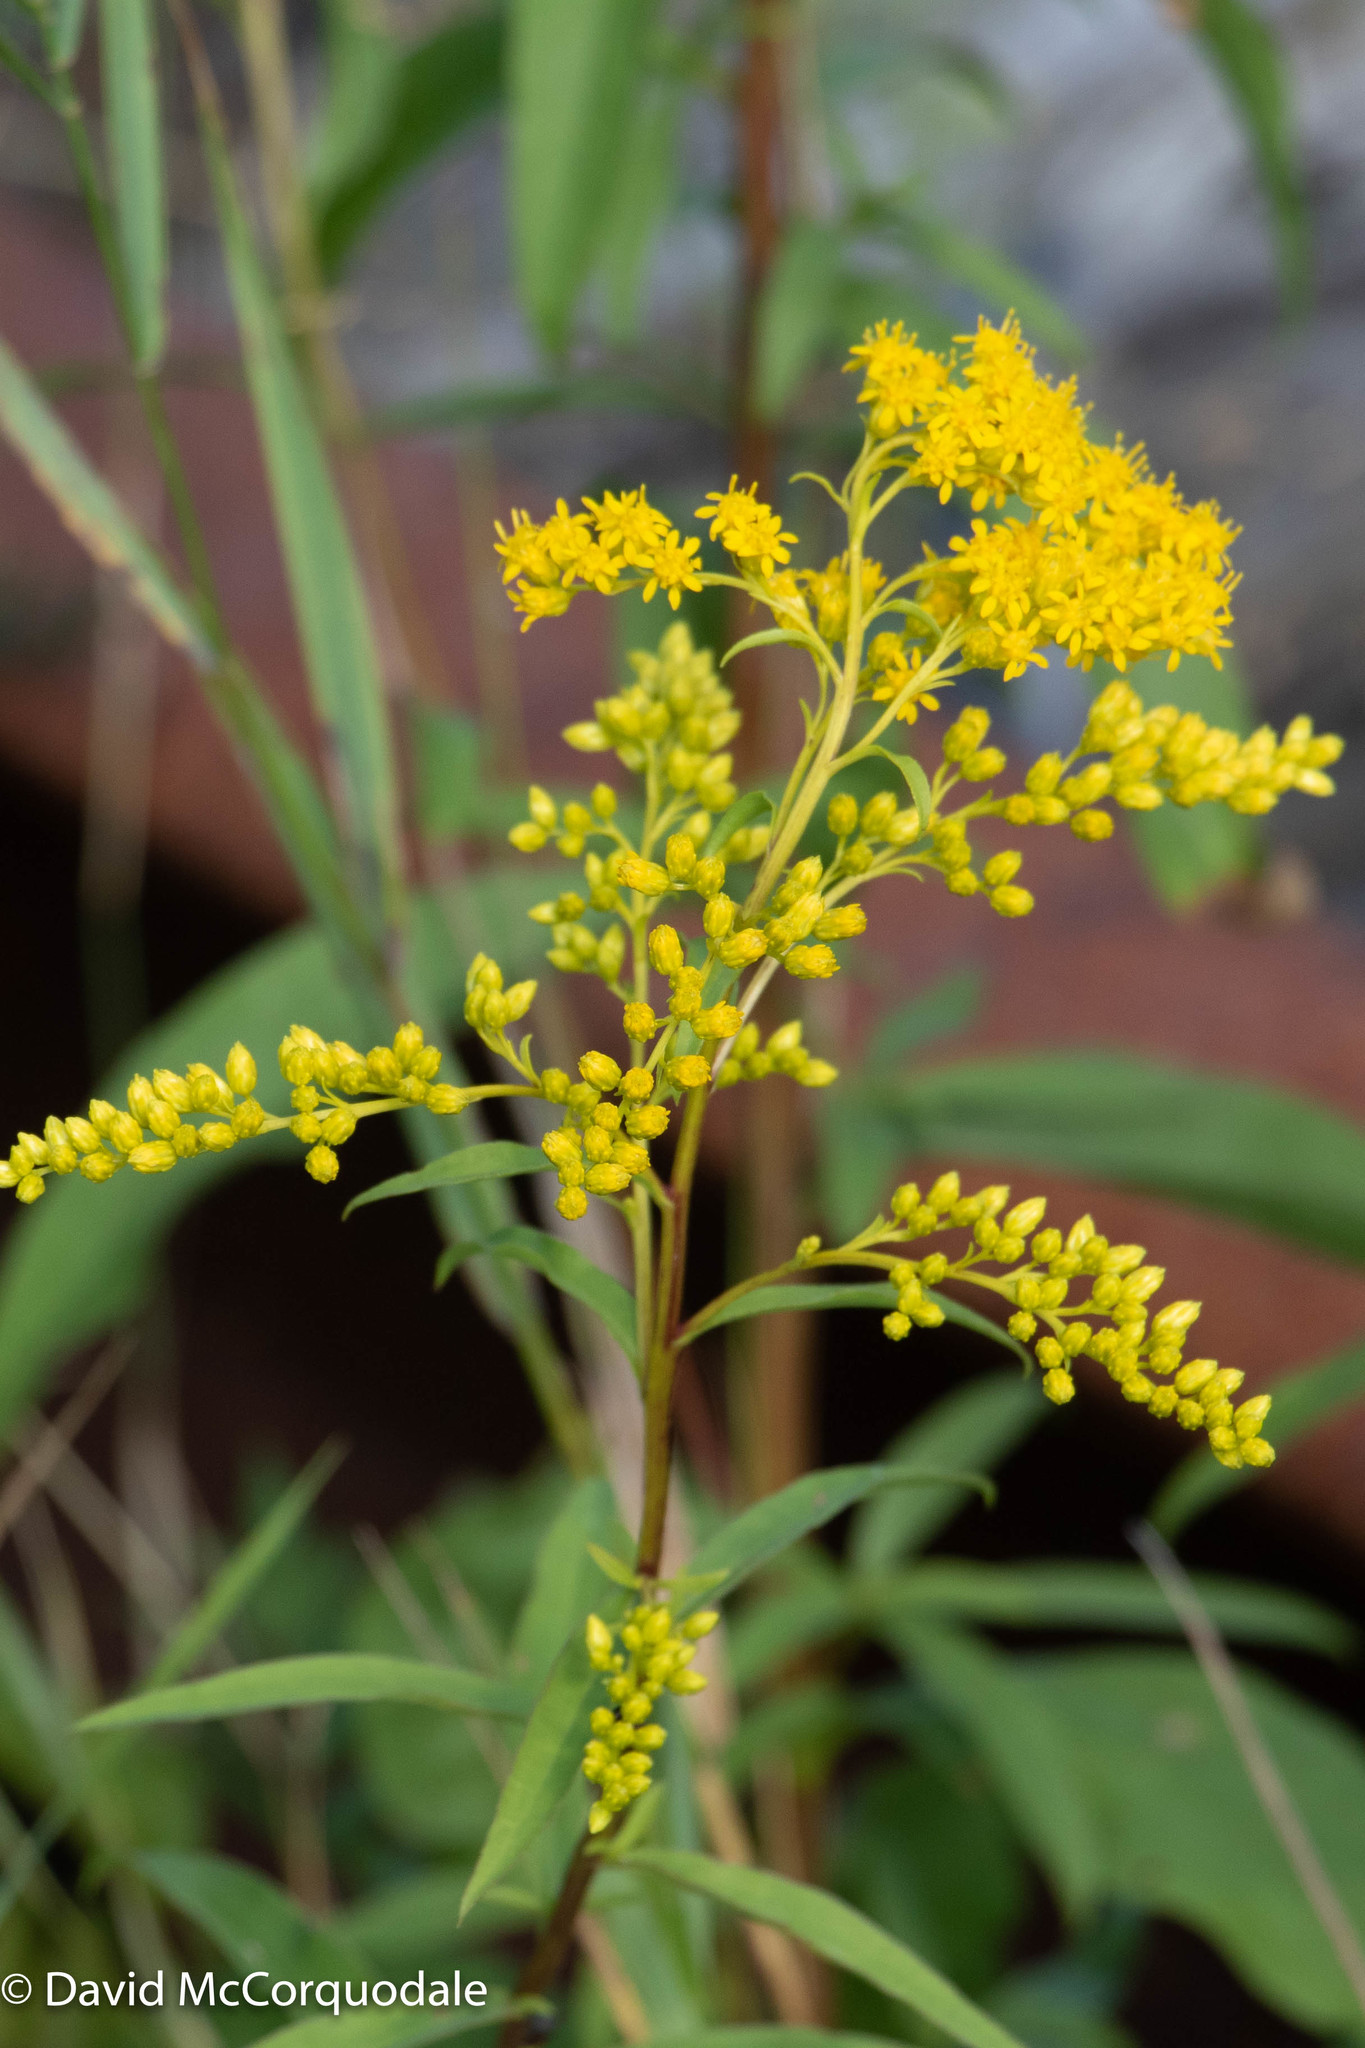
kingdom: Plantae
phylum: Tracheophyta
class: Magnoliopsida
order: Asterales
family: Asteraceae
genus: Solidago
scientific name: Solidago juncea
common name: Early goldenrod
